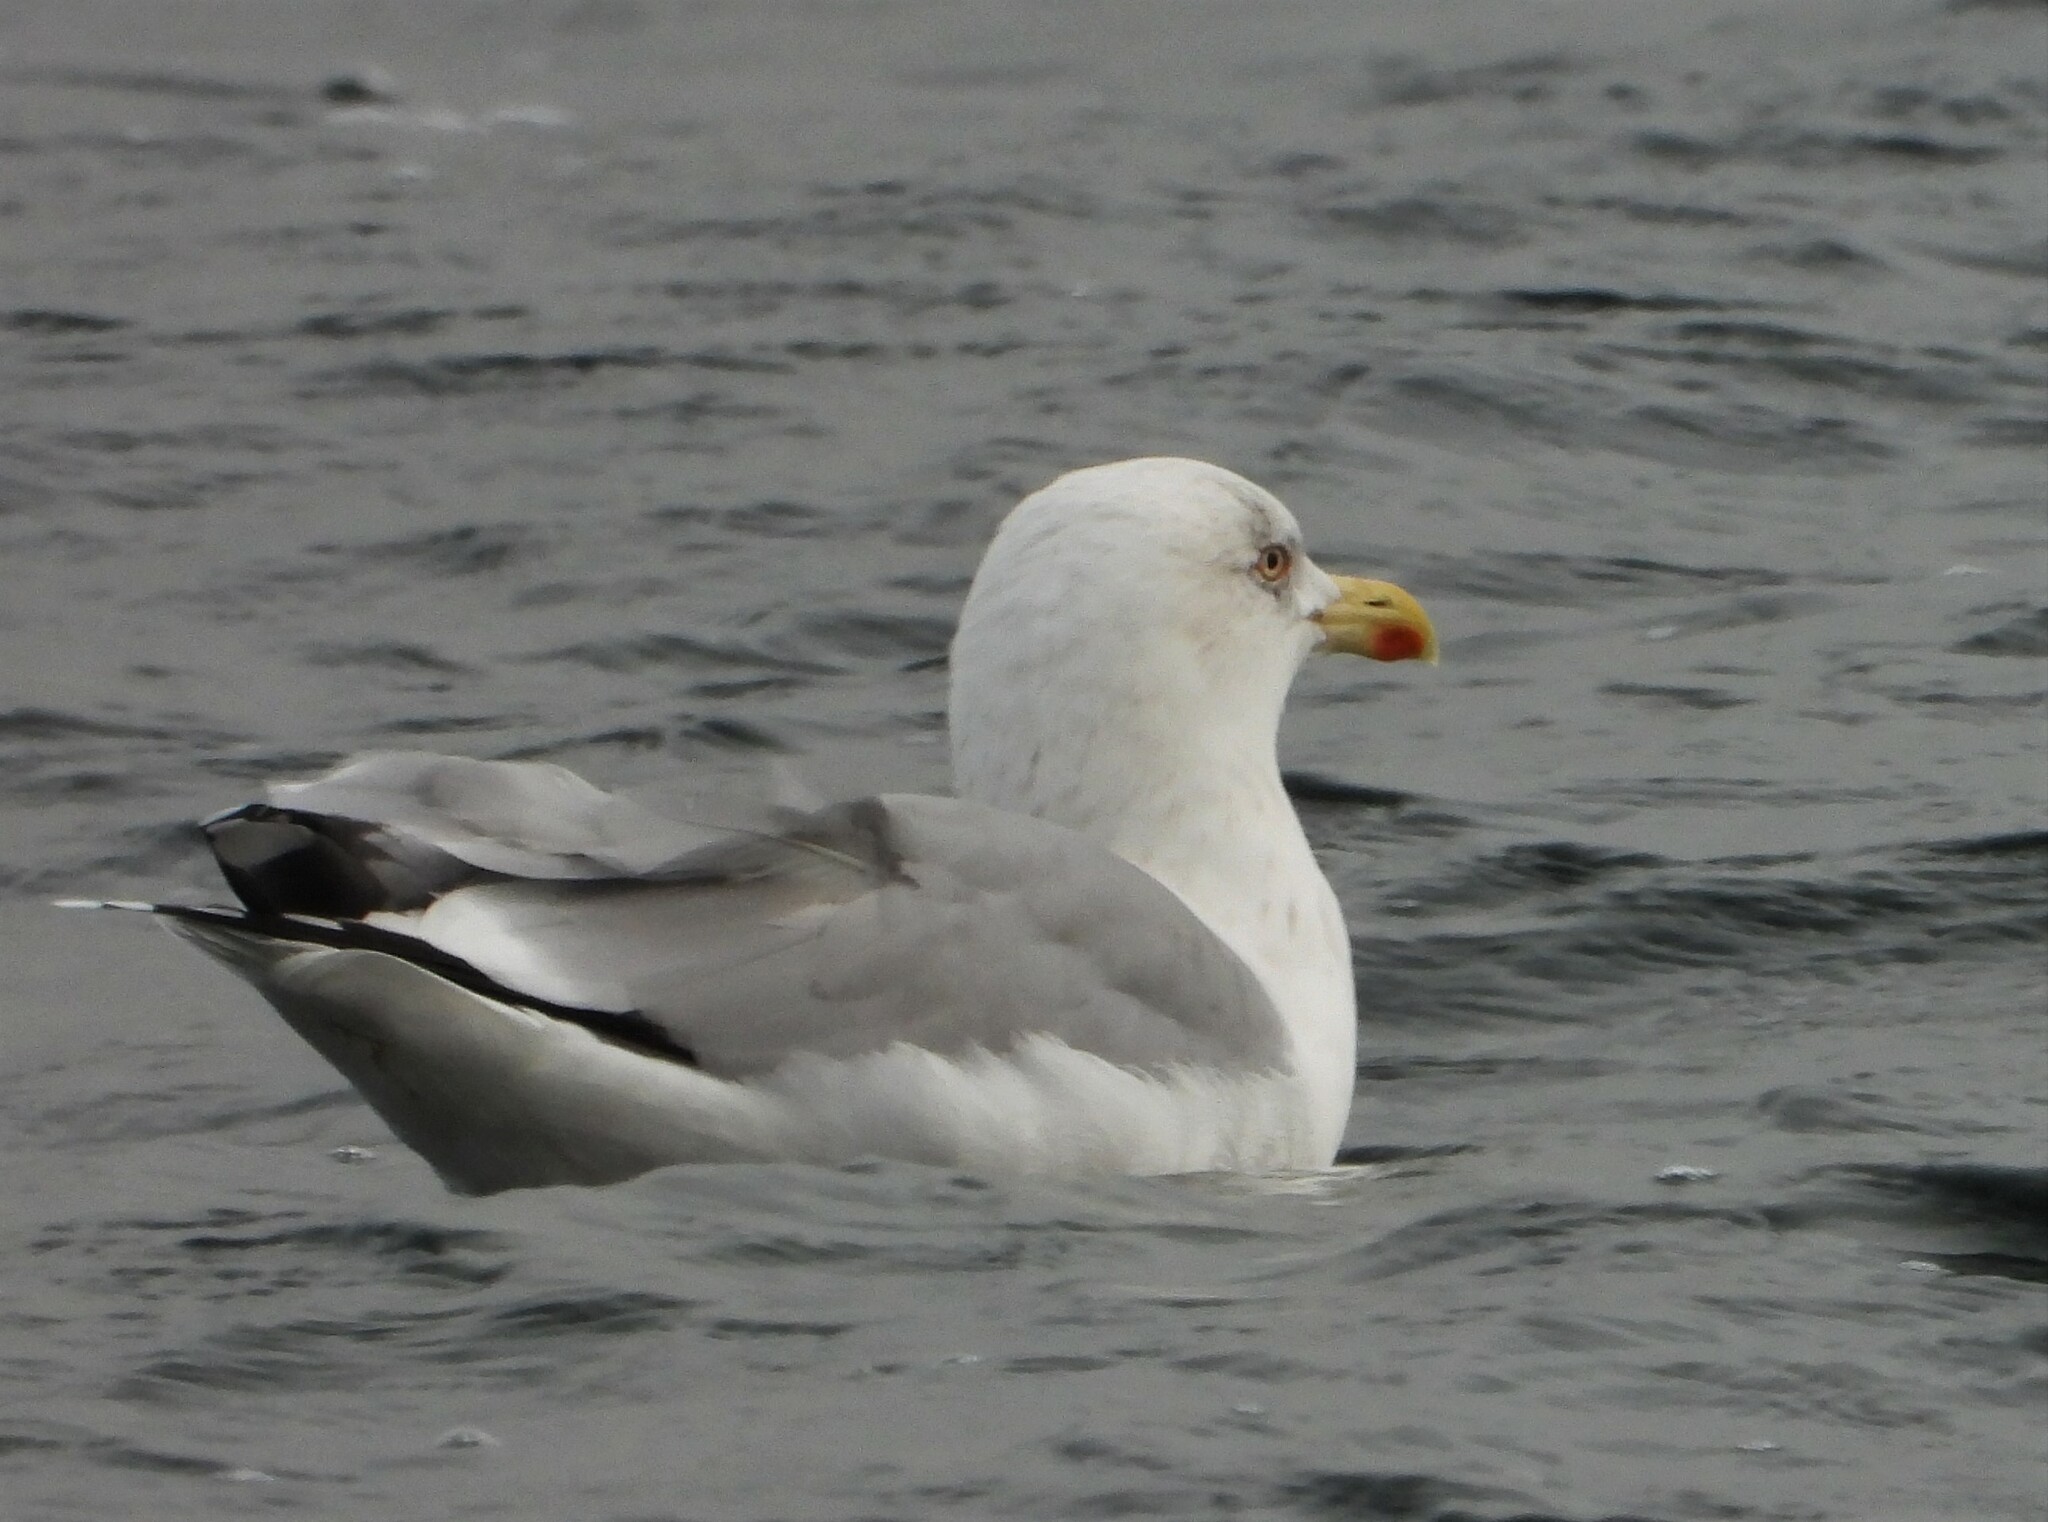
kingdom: Animalia
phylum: Chordata
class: Aves
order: Charadriiformes
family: Laridae
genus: Larus
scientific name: Larus argentatus
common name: Herring gull
